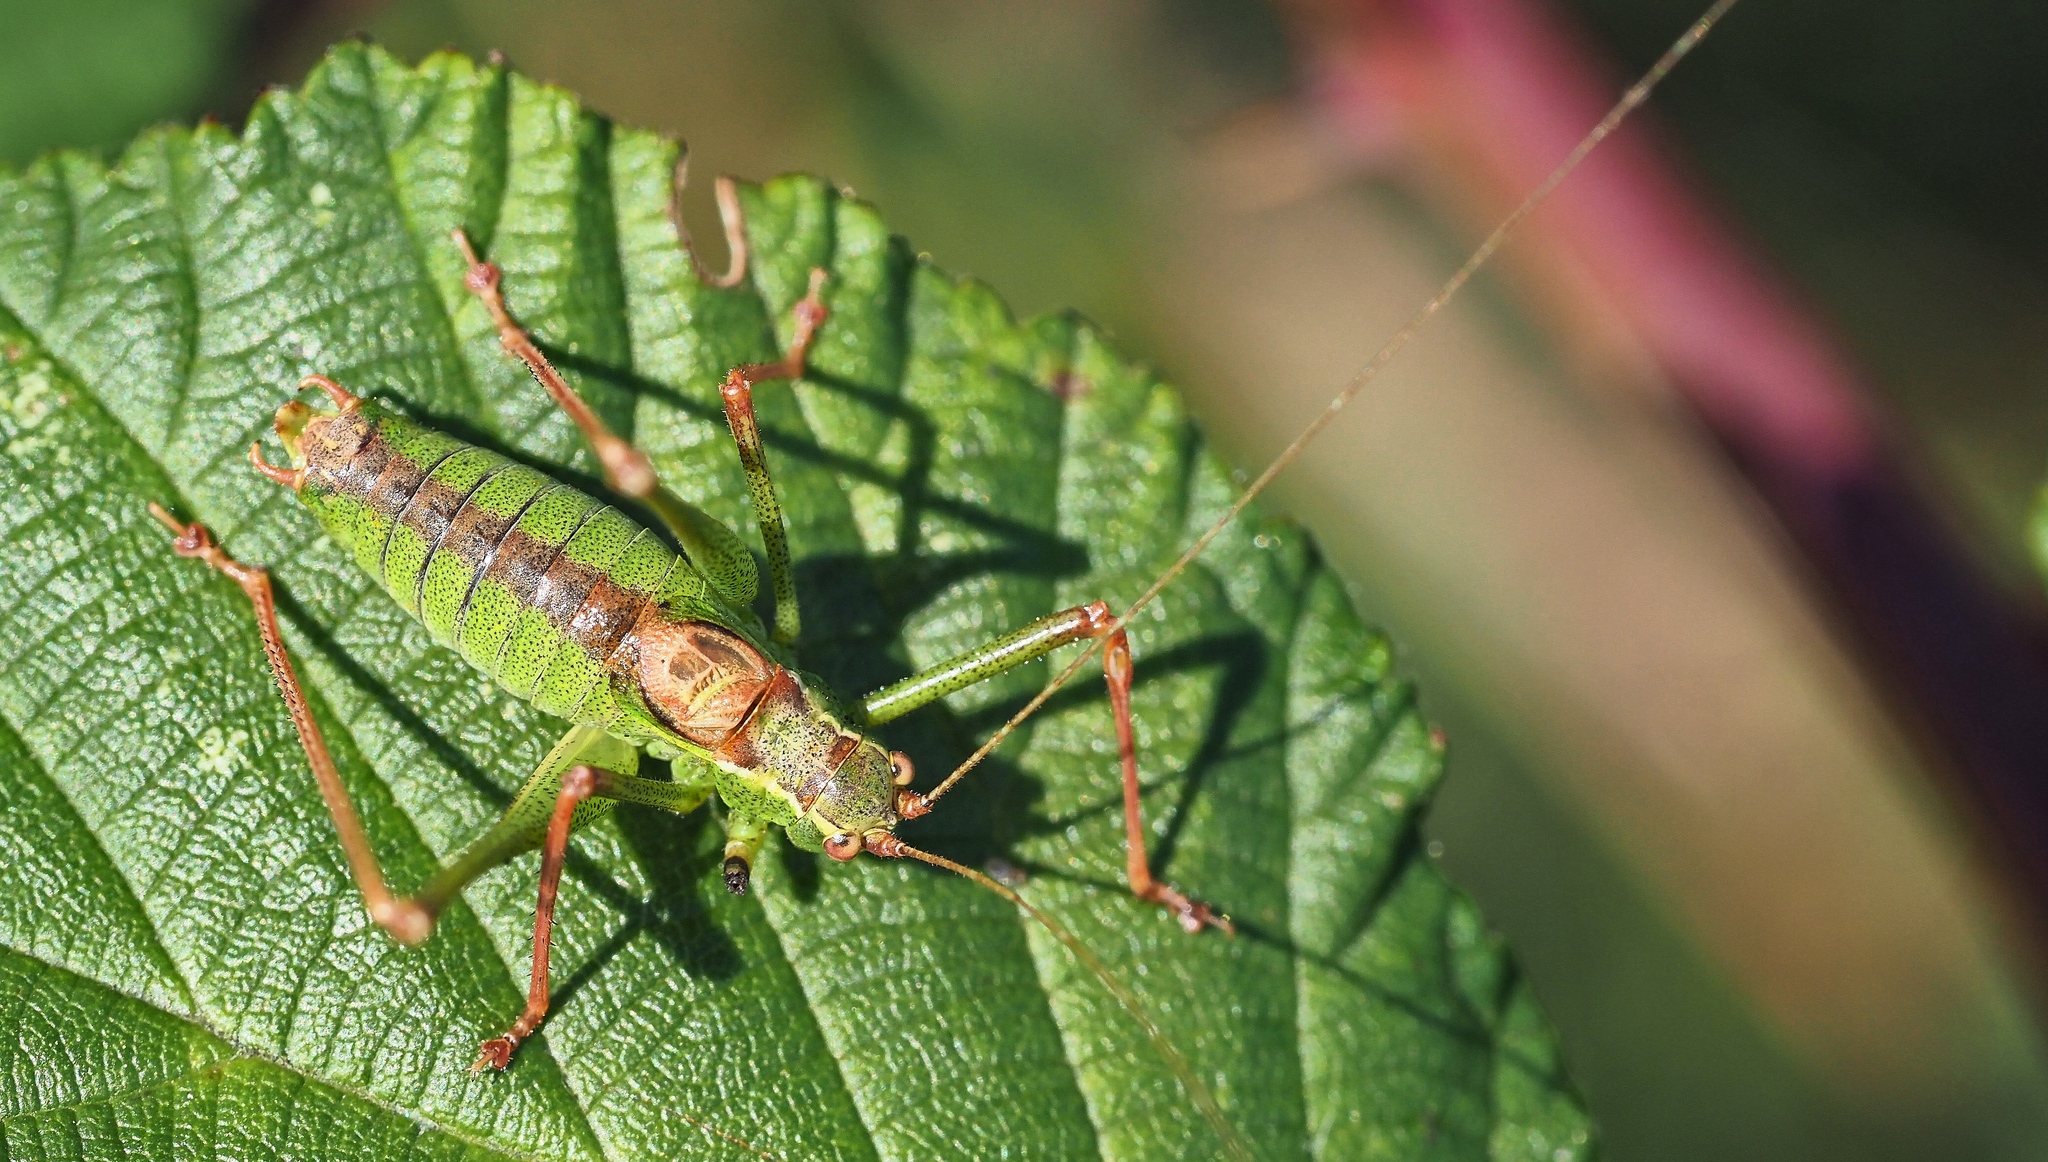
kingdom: Animalia
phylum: Arthropoda
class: Insecta
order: Orthoptera
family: Tettigoniidae
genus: Leptophyes
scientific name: Leptophyes punctatissima
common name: Speckled bush-cricket
